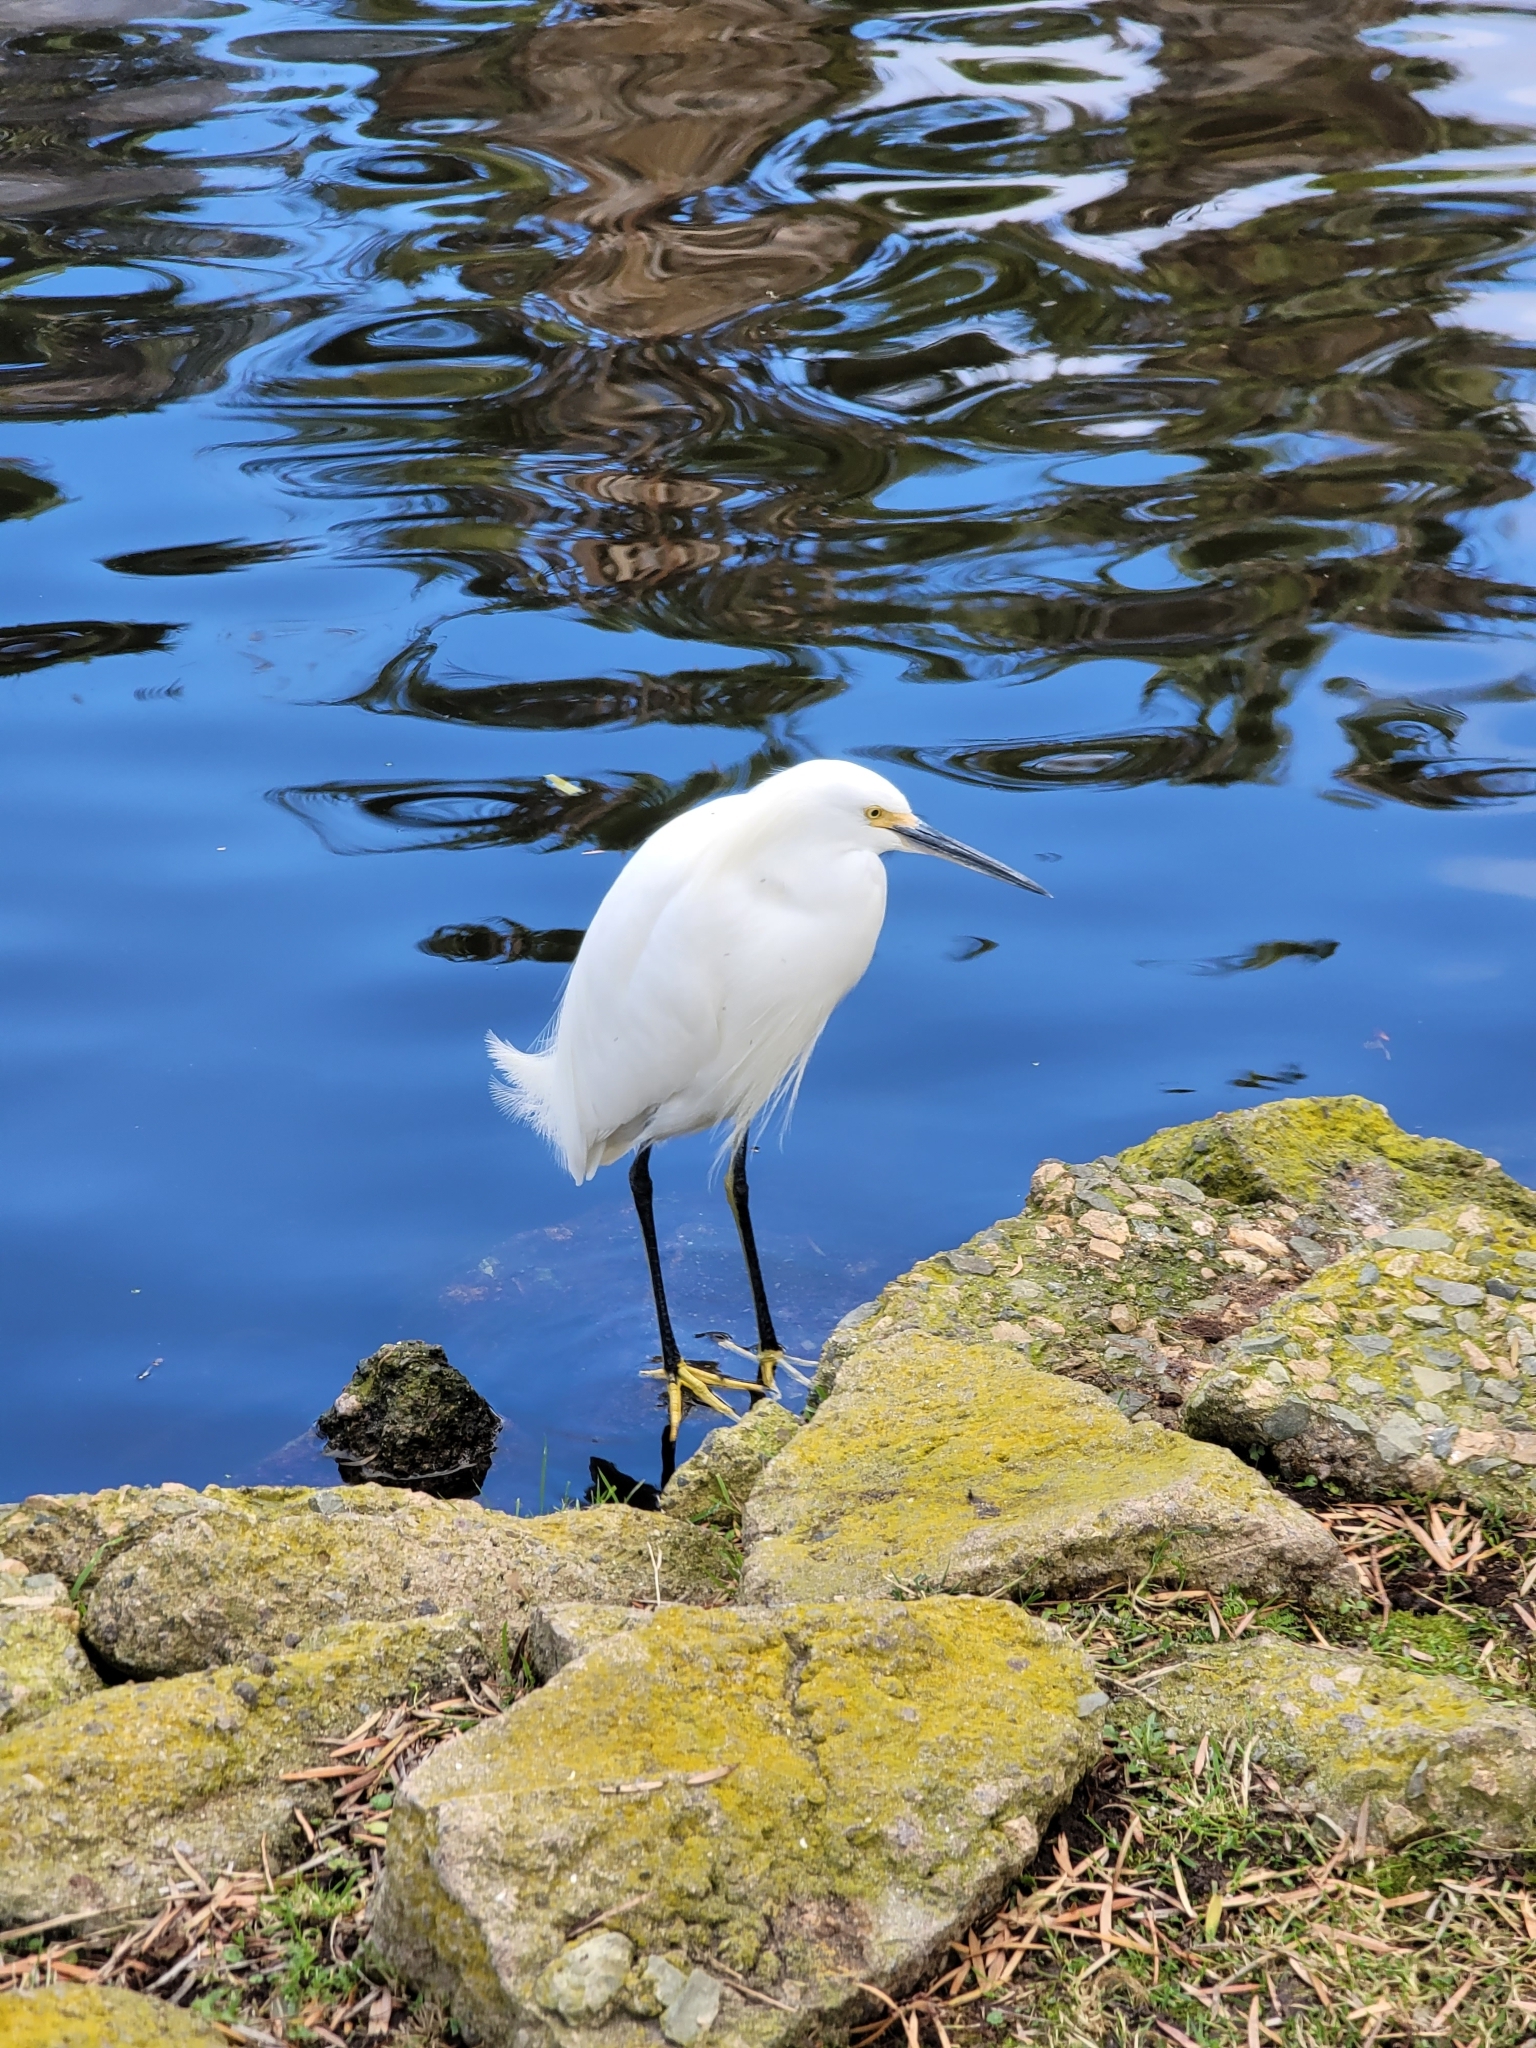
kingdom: Animalia
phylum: Chordata
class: Aves
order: Pelecaniformes
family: Ardeidae
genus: Egretta
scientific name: Egretta thula
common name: Snowy egret
